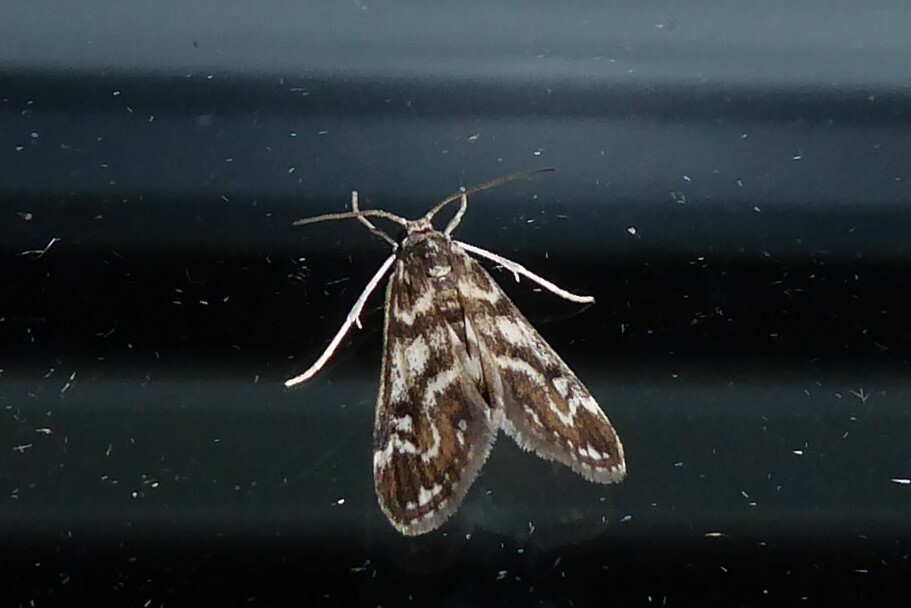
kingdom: Animalia
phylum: Arthropoda
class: Insecta
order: Lepidoptera
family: Crambidae
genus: Hygraula
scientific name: Hygraula nitens
